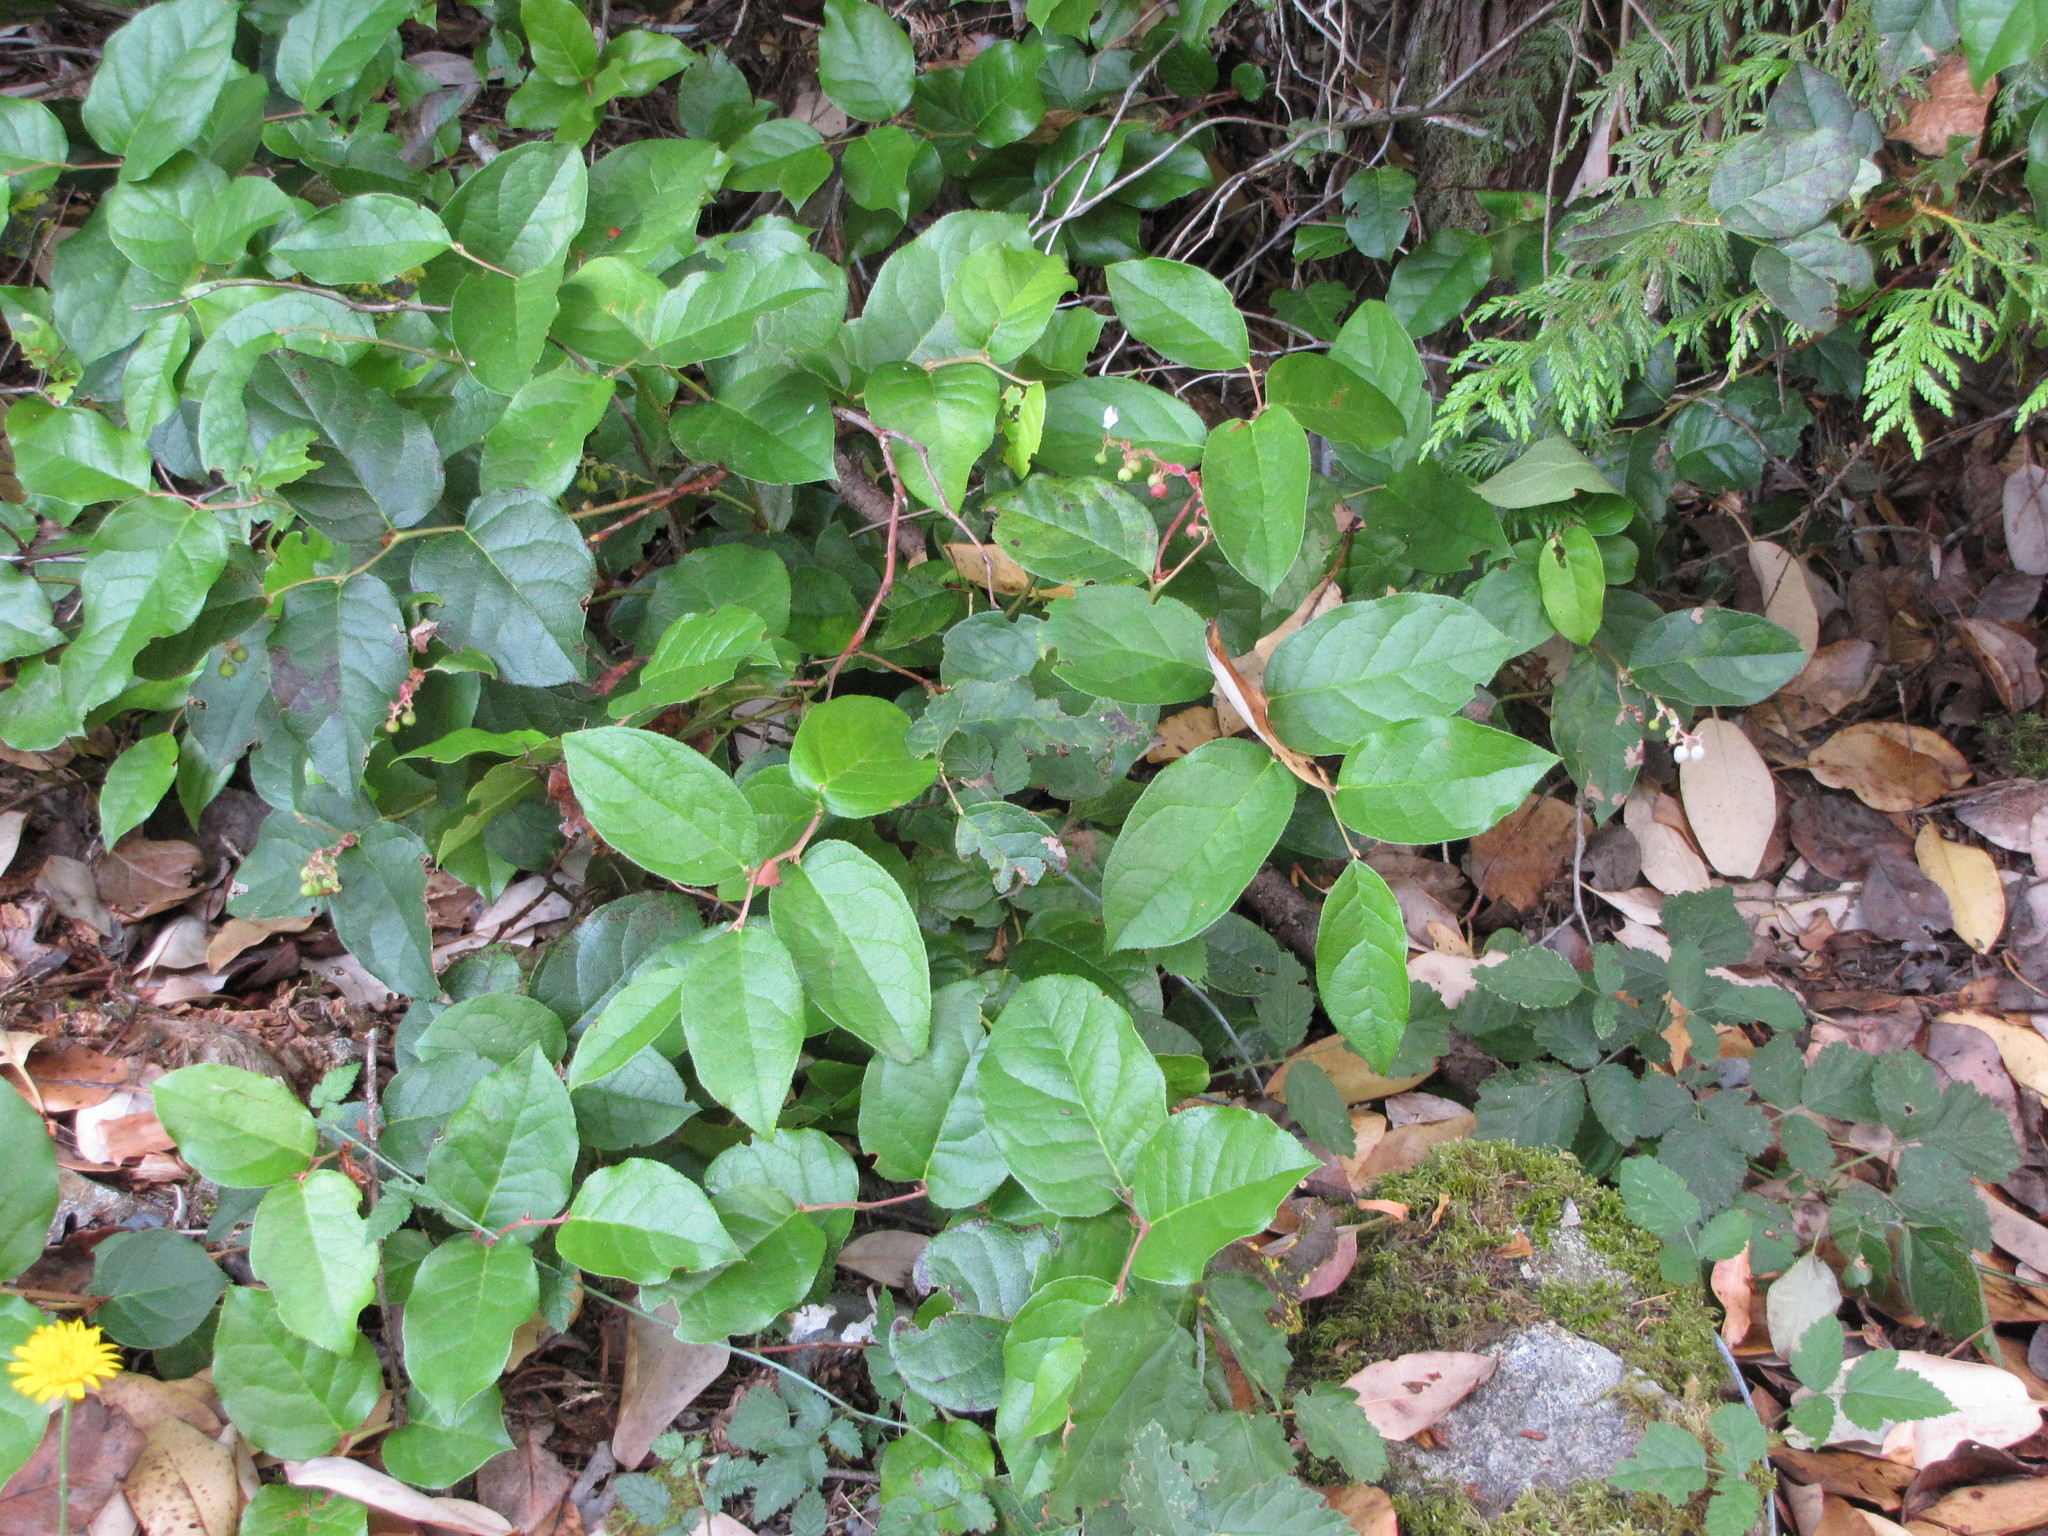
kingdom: Plantae
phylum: Tracheophyta
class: Magnoliopsida
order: Ericales
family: Ericaceae
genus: Gaultheria
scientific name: Gaultheria shallon
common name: Shallon
